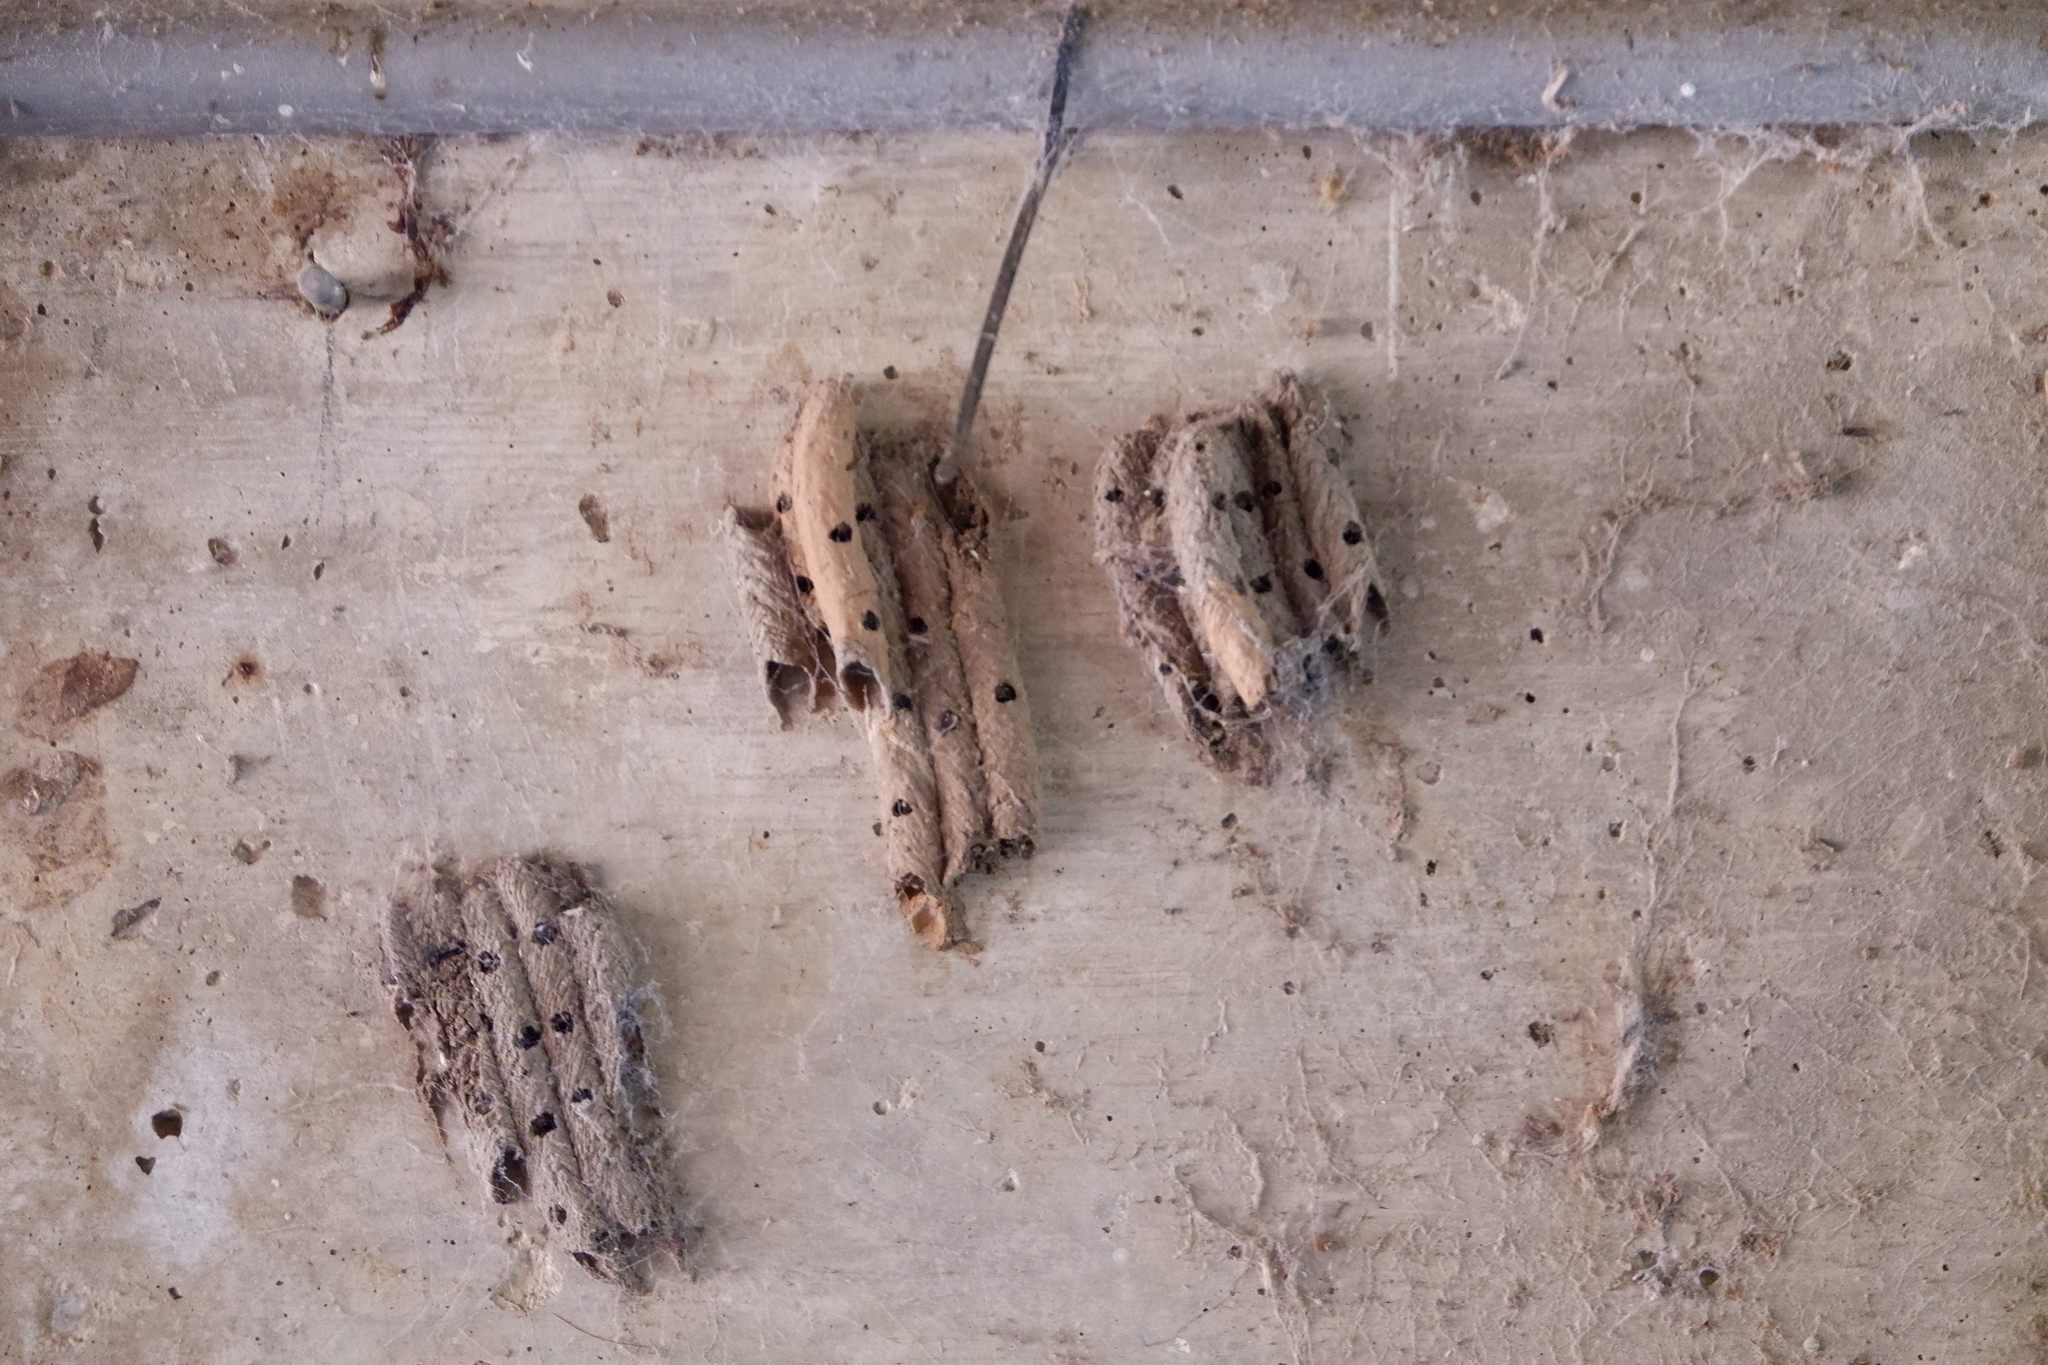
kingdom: Animalia
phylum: Arthropoda
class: Insecta
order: Hymenoptera
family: Crabronidae
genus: Trypoxylon
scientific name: Trypoxylon politum
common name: Organ-pipe mud-dauber wasp
